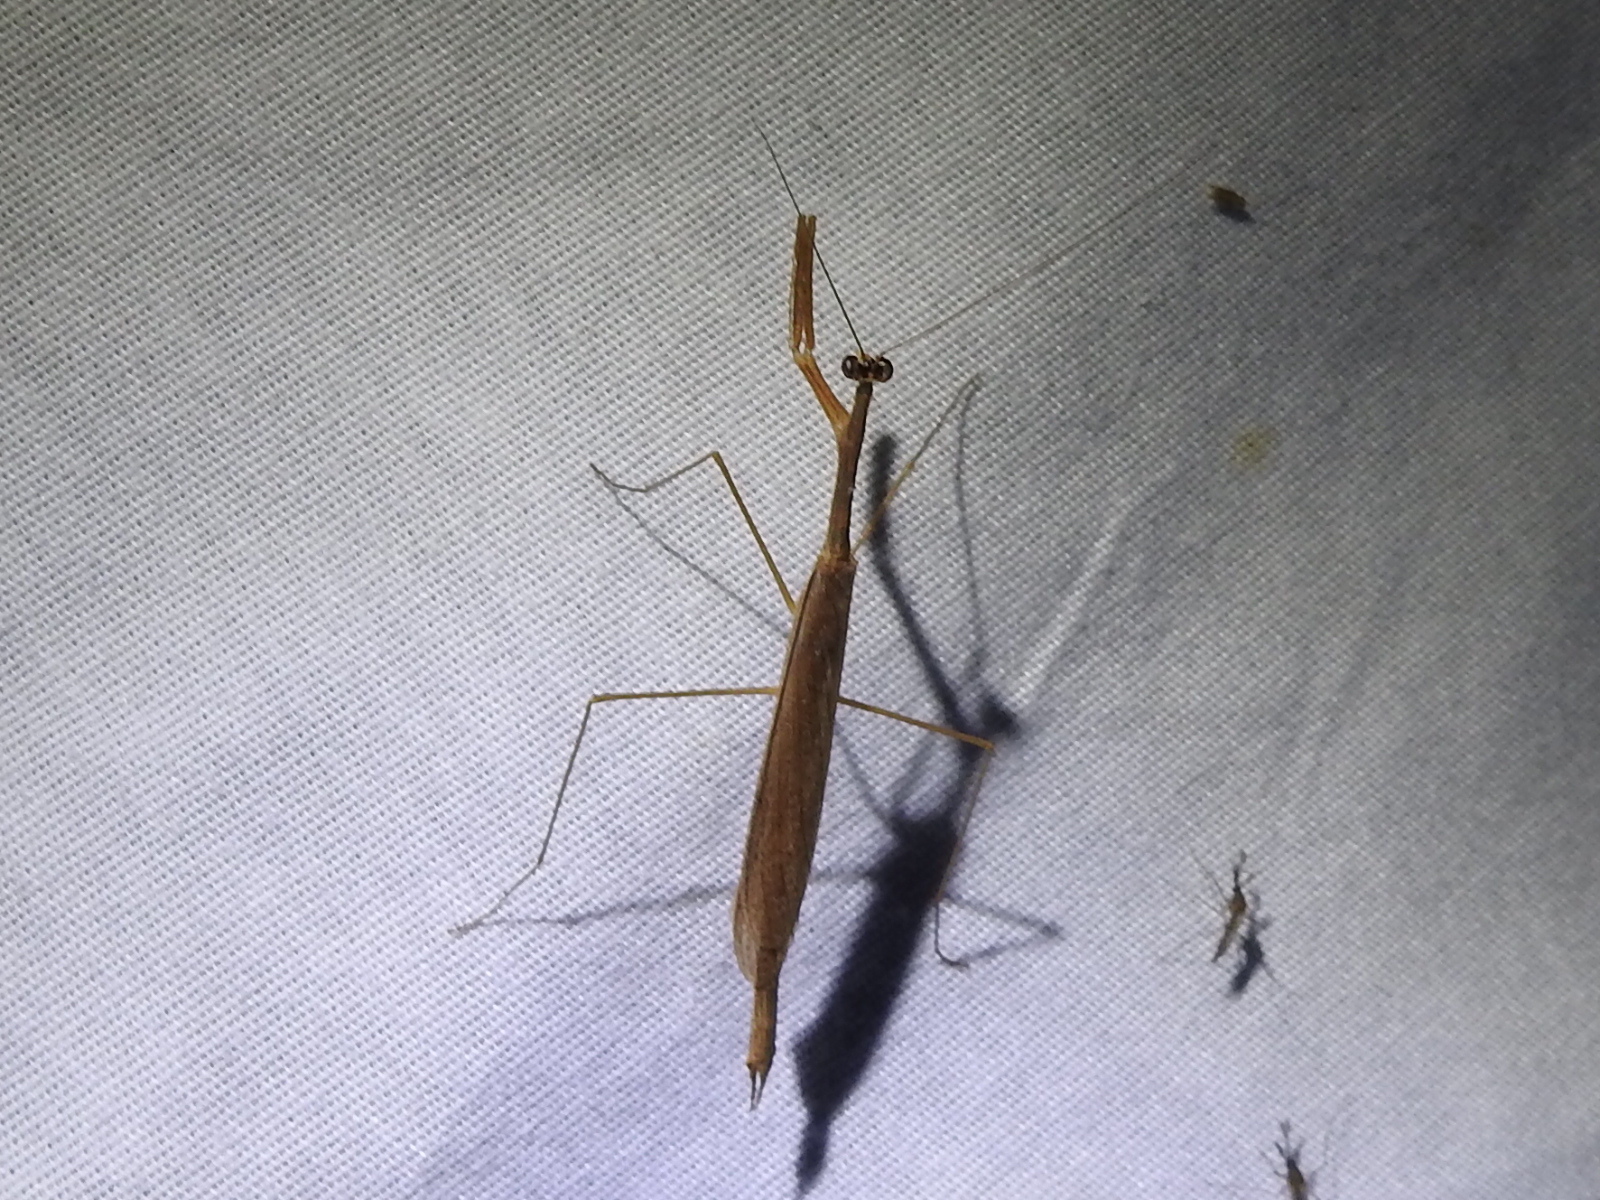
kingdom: Animalia
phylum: Arthropoda
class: Insecta
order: Mantodea
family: Thespidae
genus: Bistanta
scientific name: Bistanta mexicana
